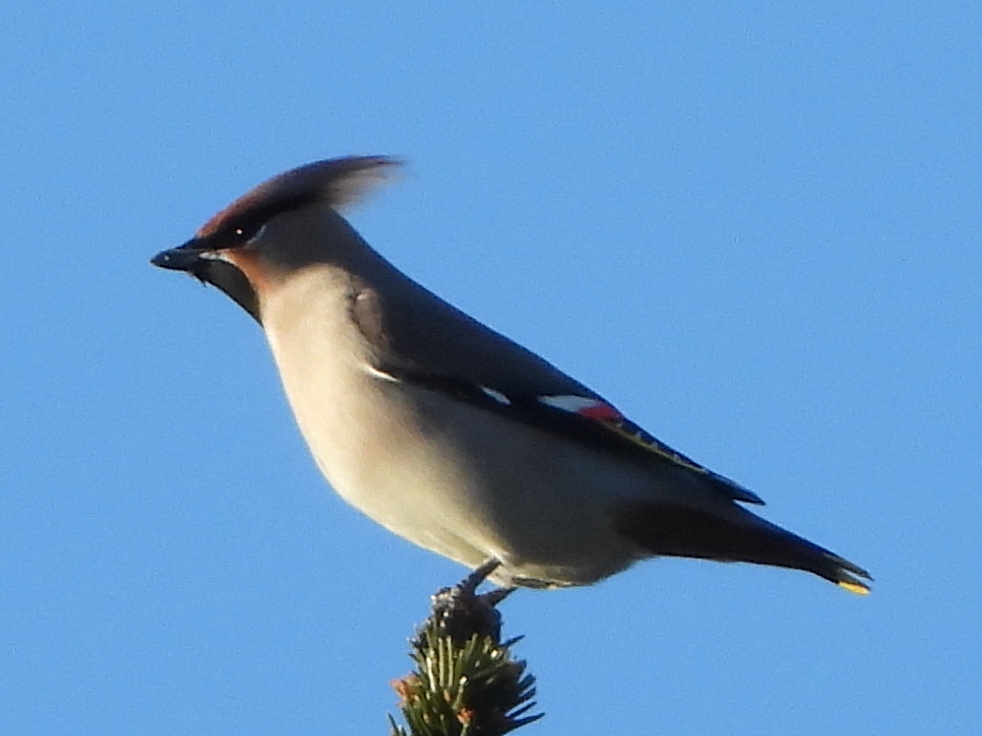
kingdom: Animalia
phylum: Chordata
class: Aves
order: Passeriformes
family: Bombycillidae
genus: Bombycilla
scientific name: Bombycilla garrulus
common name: Bohemian waxwing
